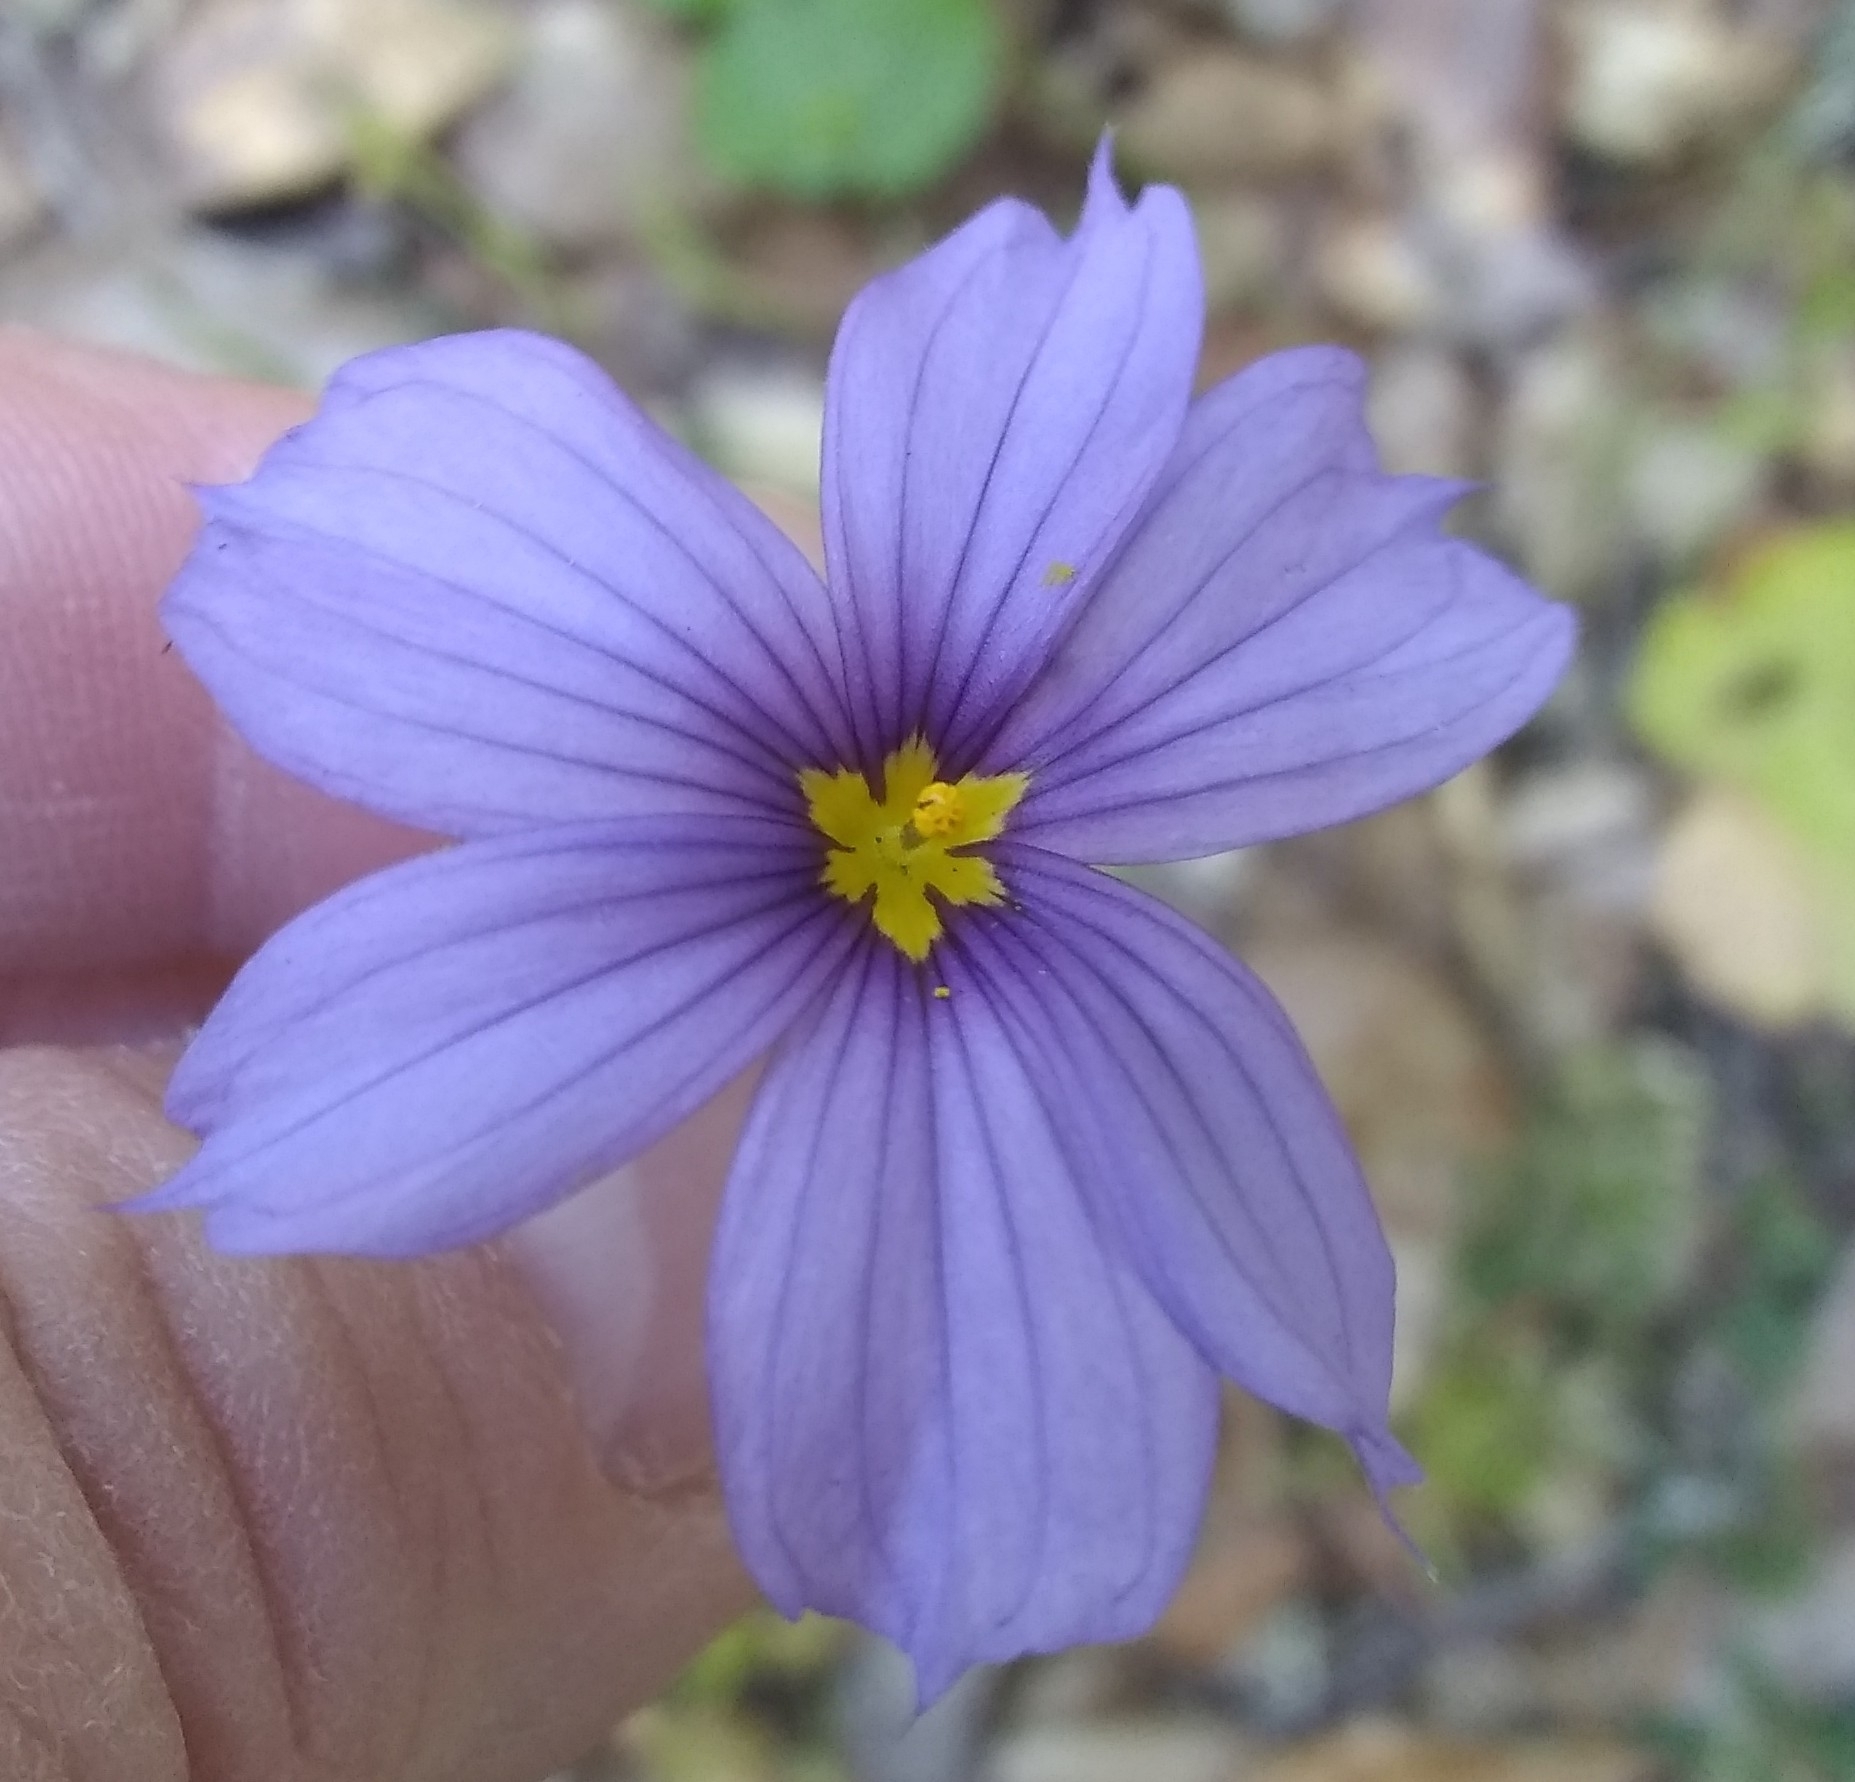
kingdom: Plantae
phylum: Tracheophyta
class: Liliopsida
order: Asparagales
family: Iridaceae
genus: Sisyrinchium
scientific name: Sisyrinchium bellum
